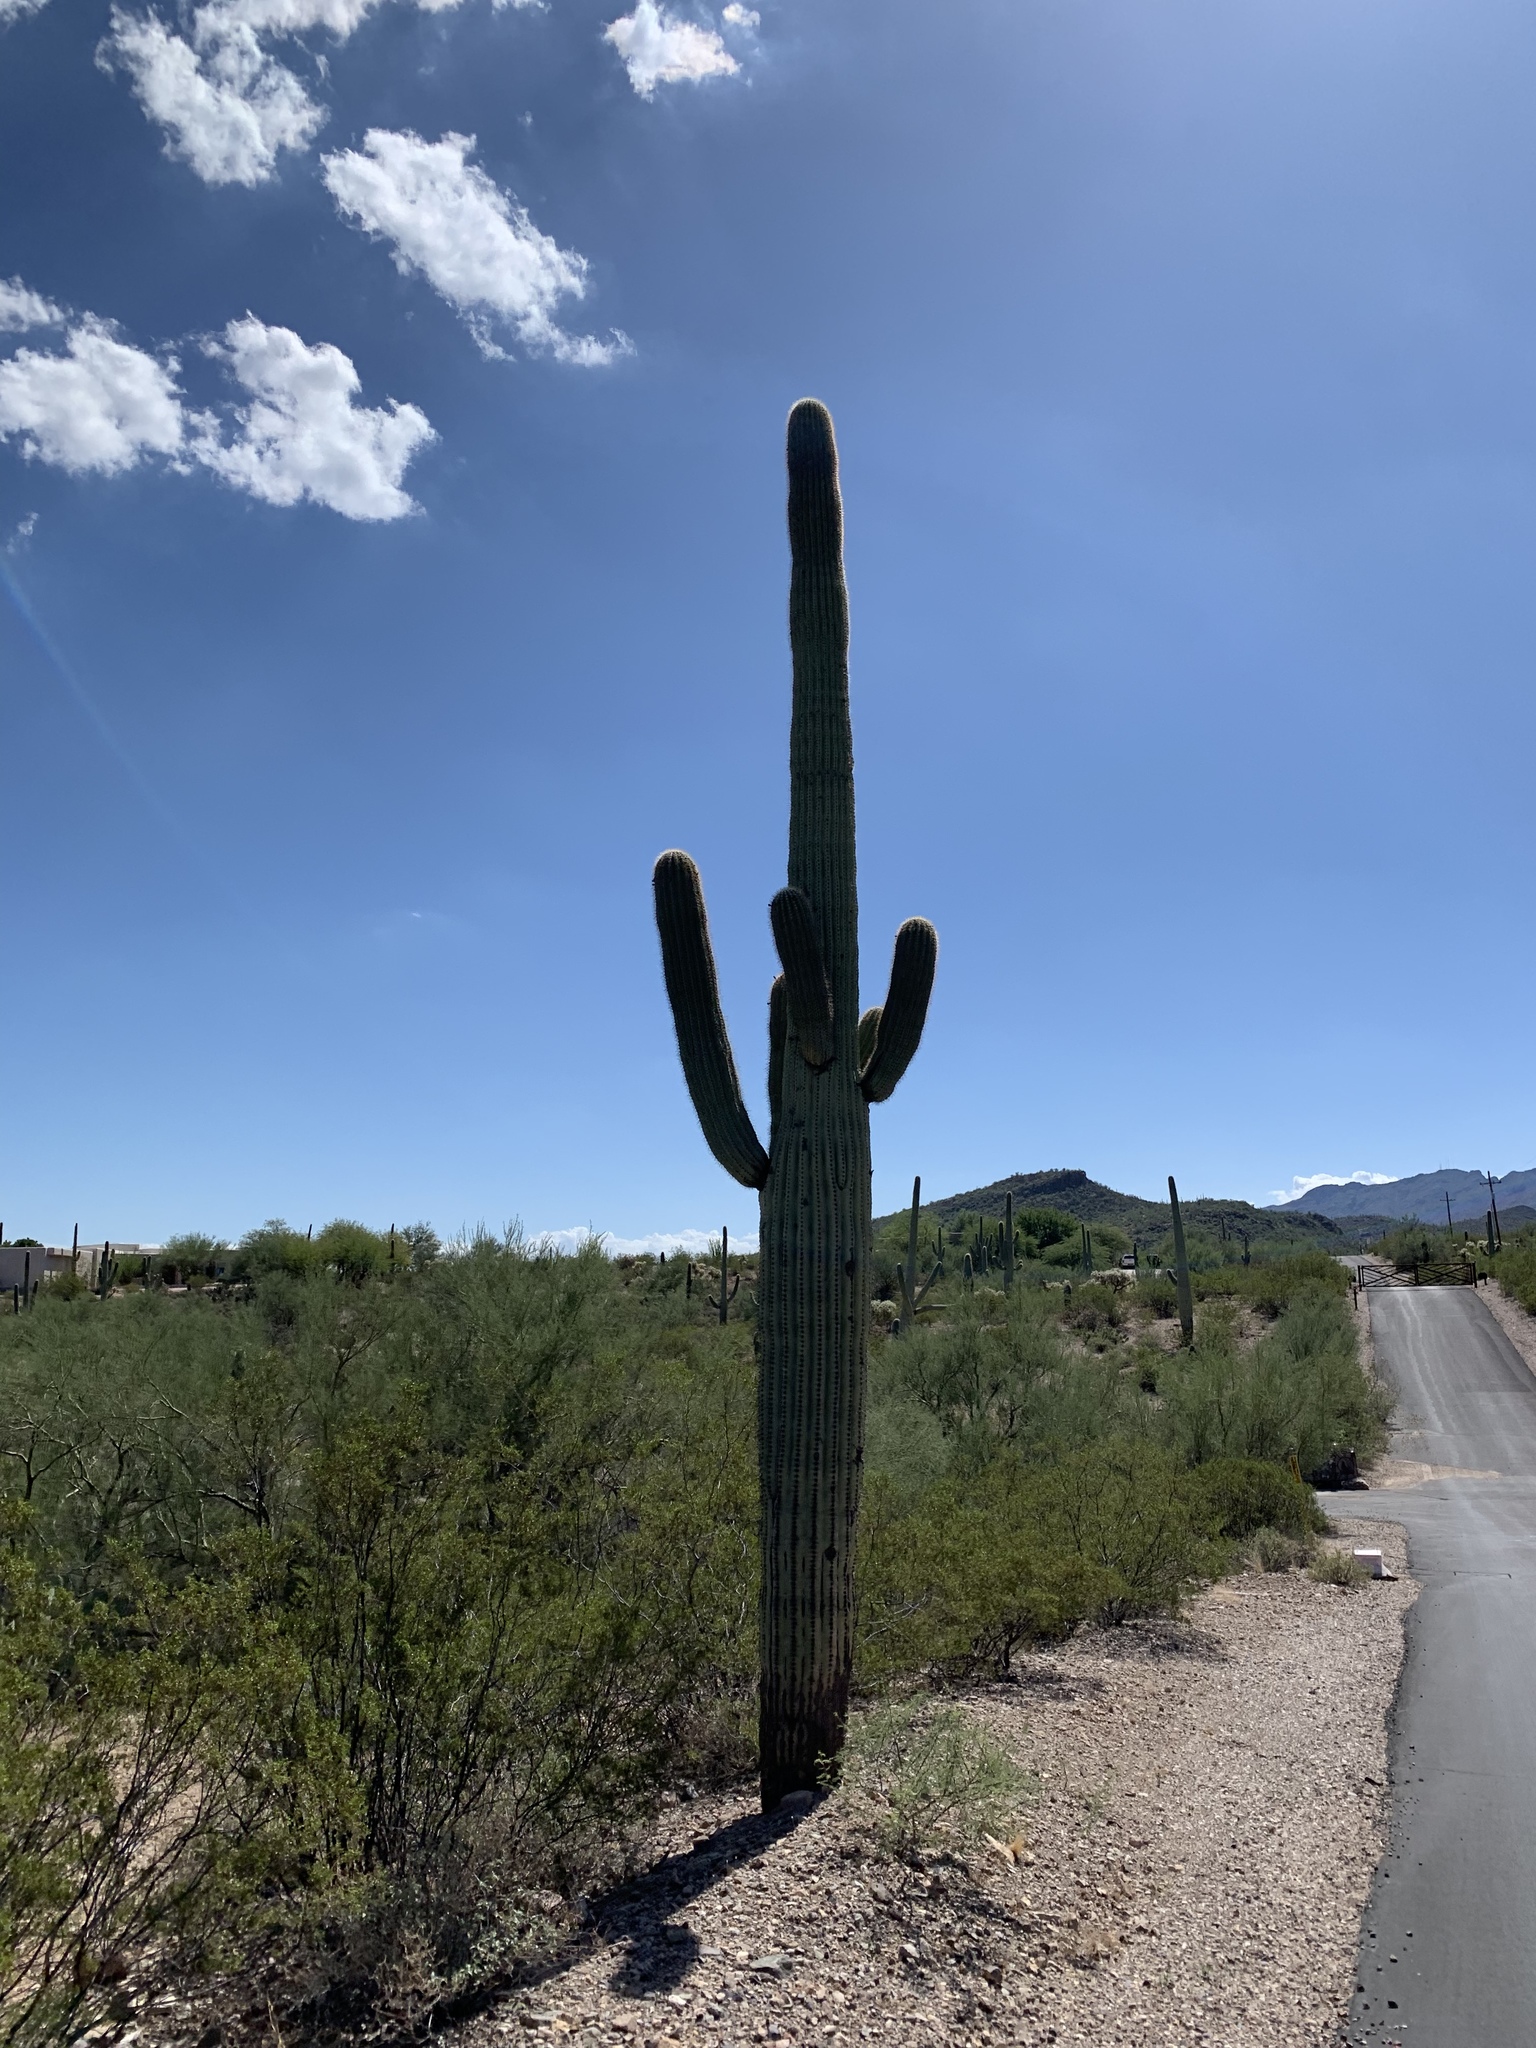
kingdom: Plantae
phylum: Tracheophyta
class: Magnoliopsida
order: Caryophyllales
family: Cactaceae
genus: Carnegiea
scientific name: Carnegiea gigantea
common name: Saguaro
